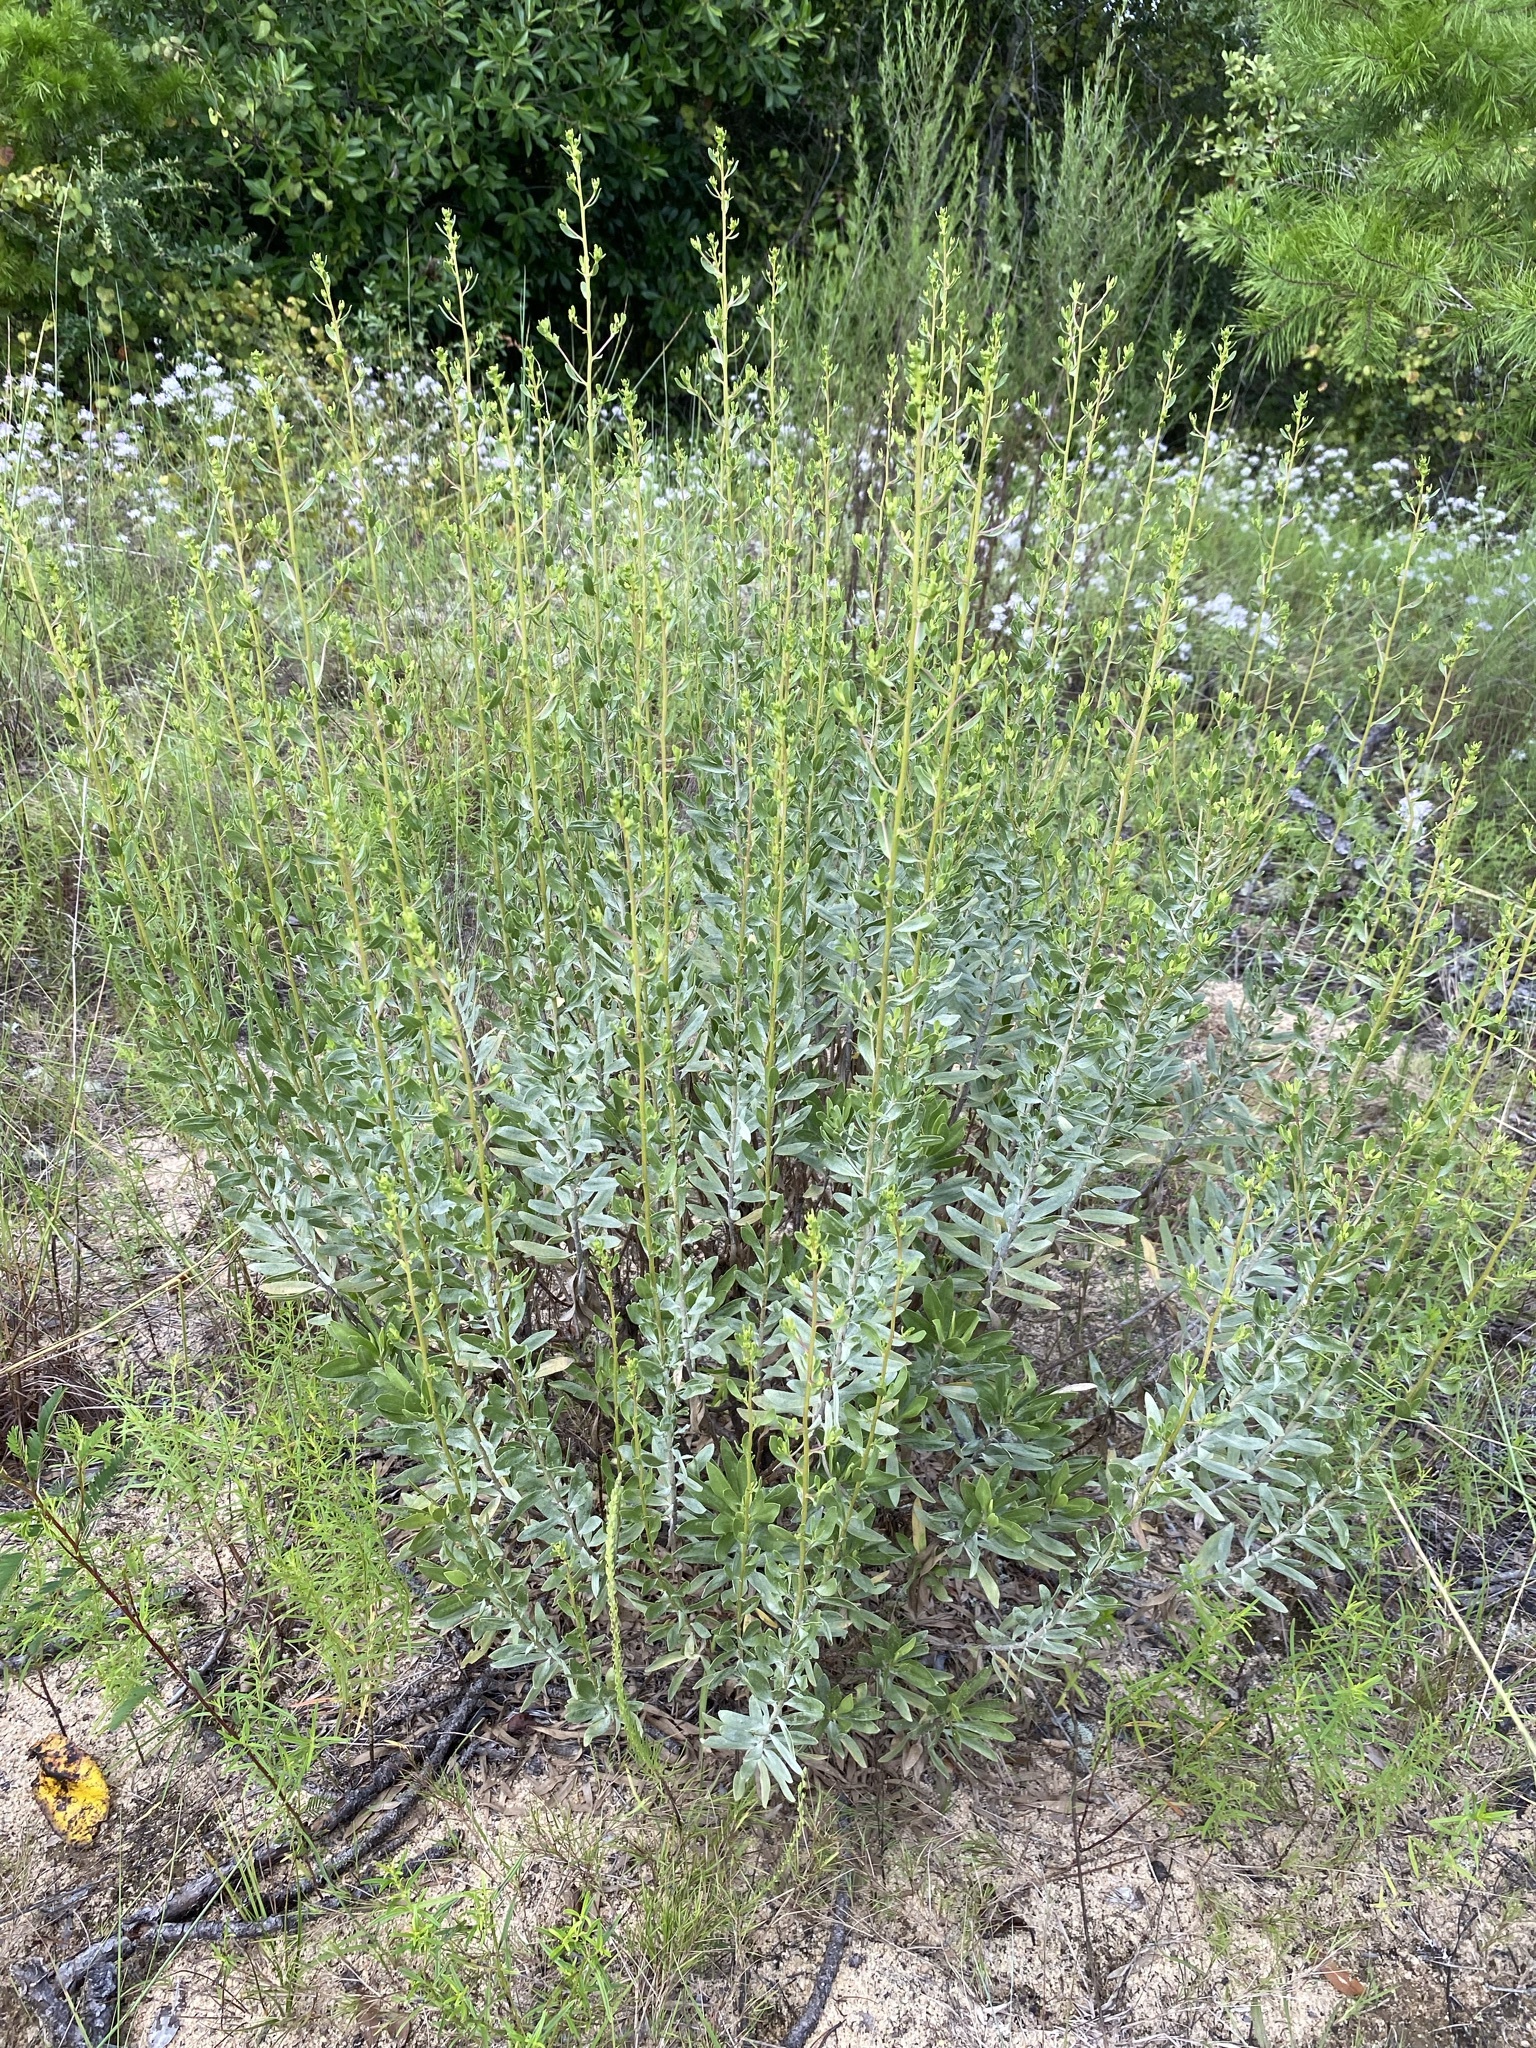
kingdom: Plantae
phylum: Tracheophyta
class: Magnoliopsida
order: Asterales
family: Asteraceae
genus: Chrysoma
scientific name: Chrysoma pauciflosculosa
